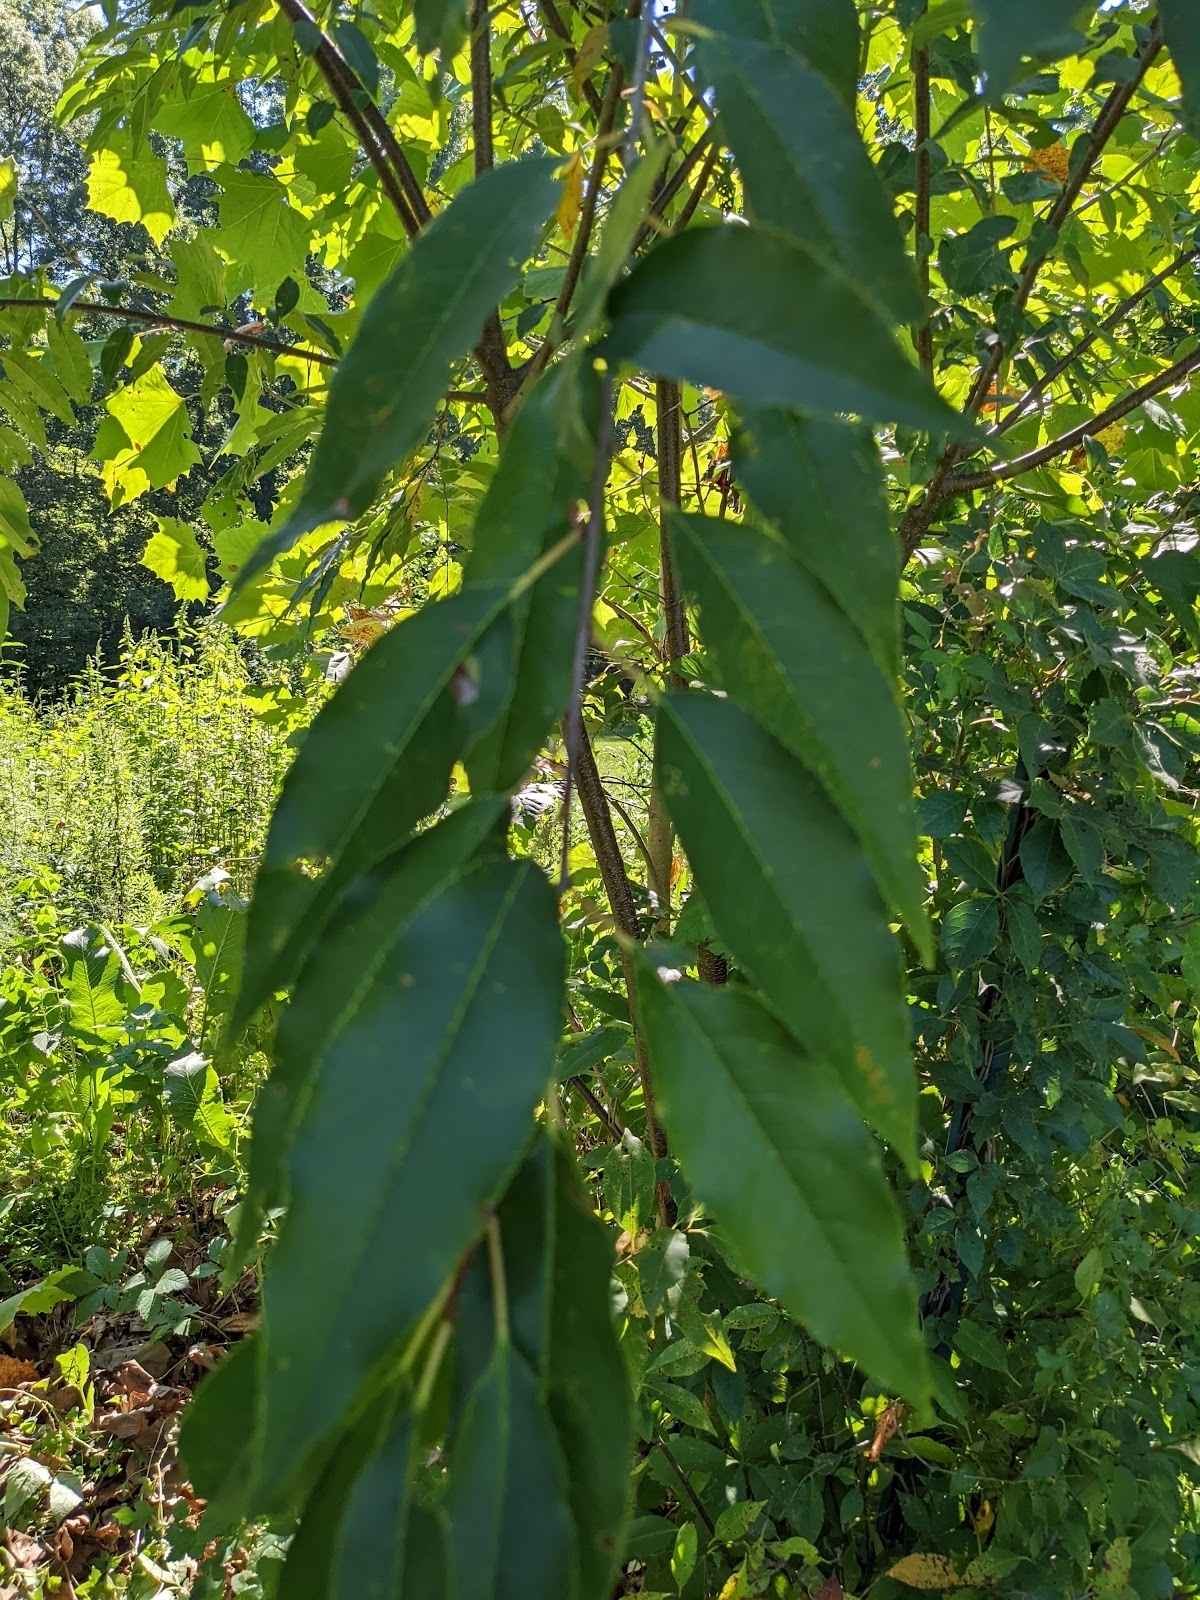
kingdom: Plantae
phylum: Tracheophyta
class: Magnoliopsida
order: Rosales
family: Rosaceae
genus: Prunus
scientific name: Prunus serotina
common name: Black cherry
